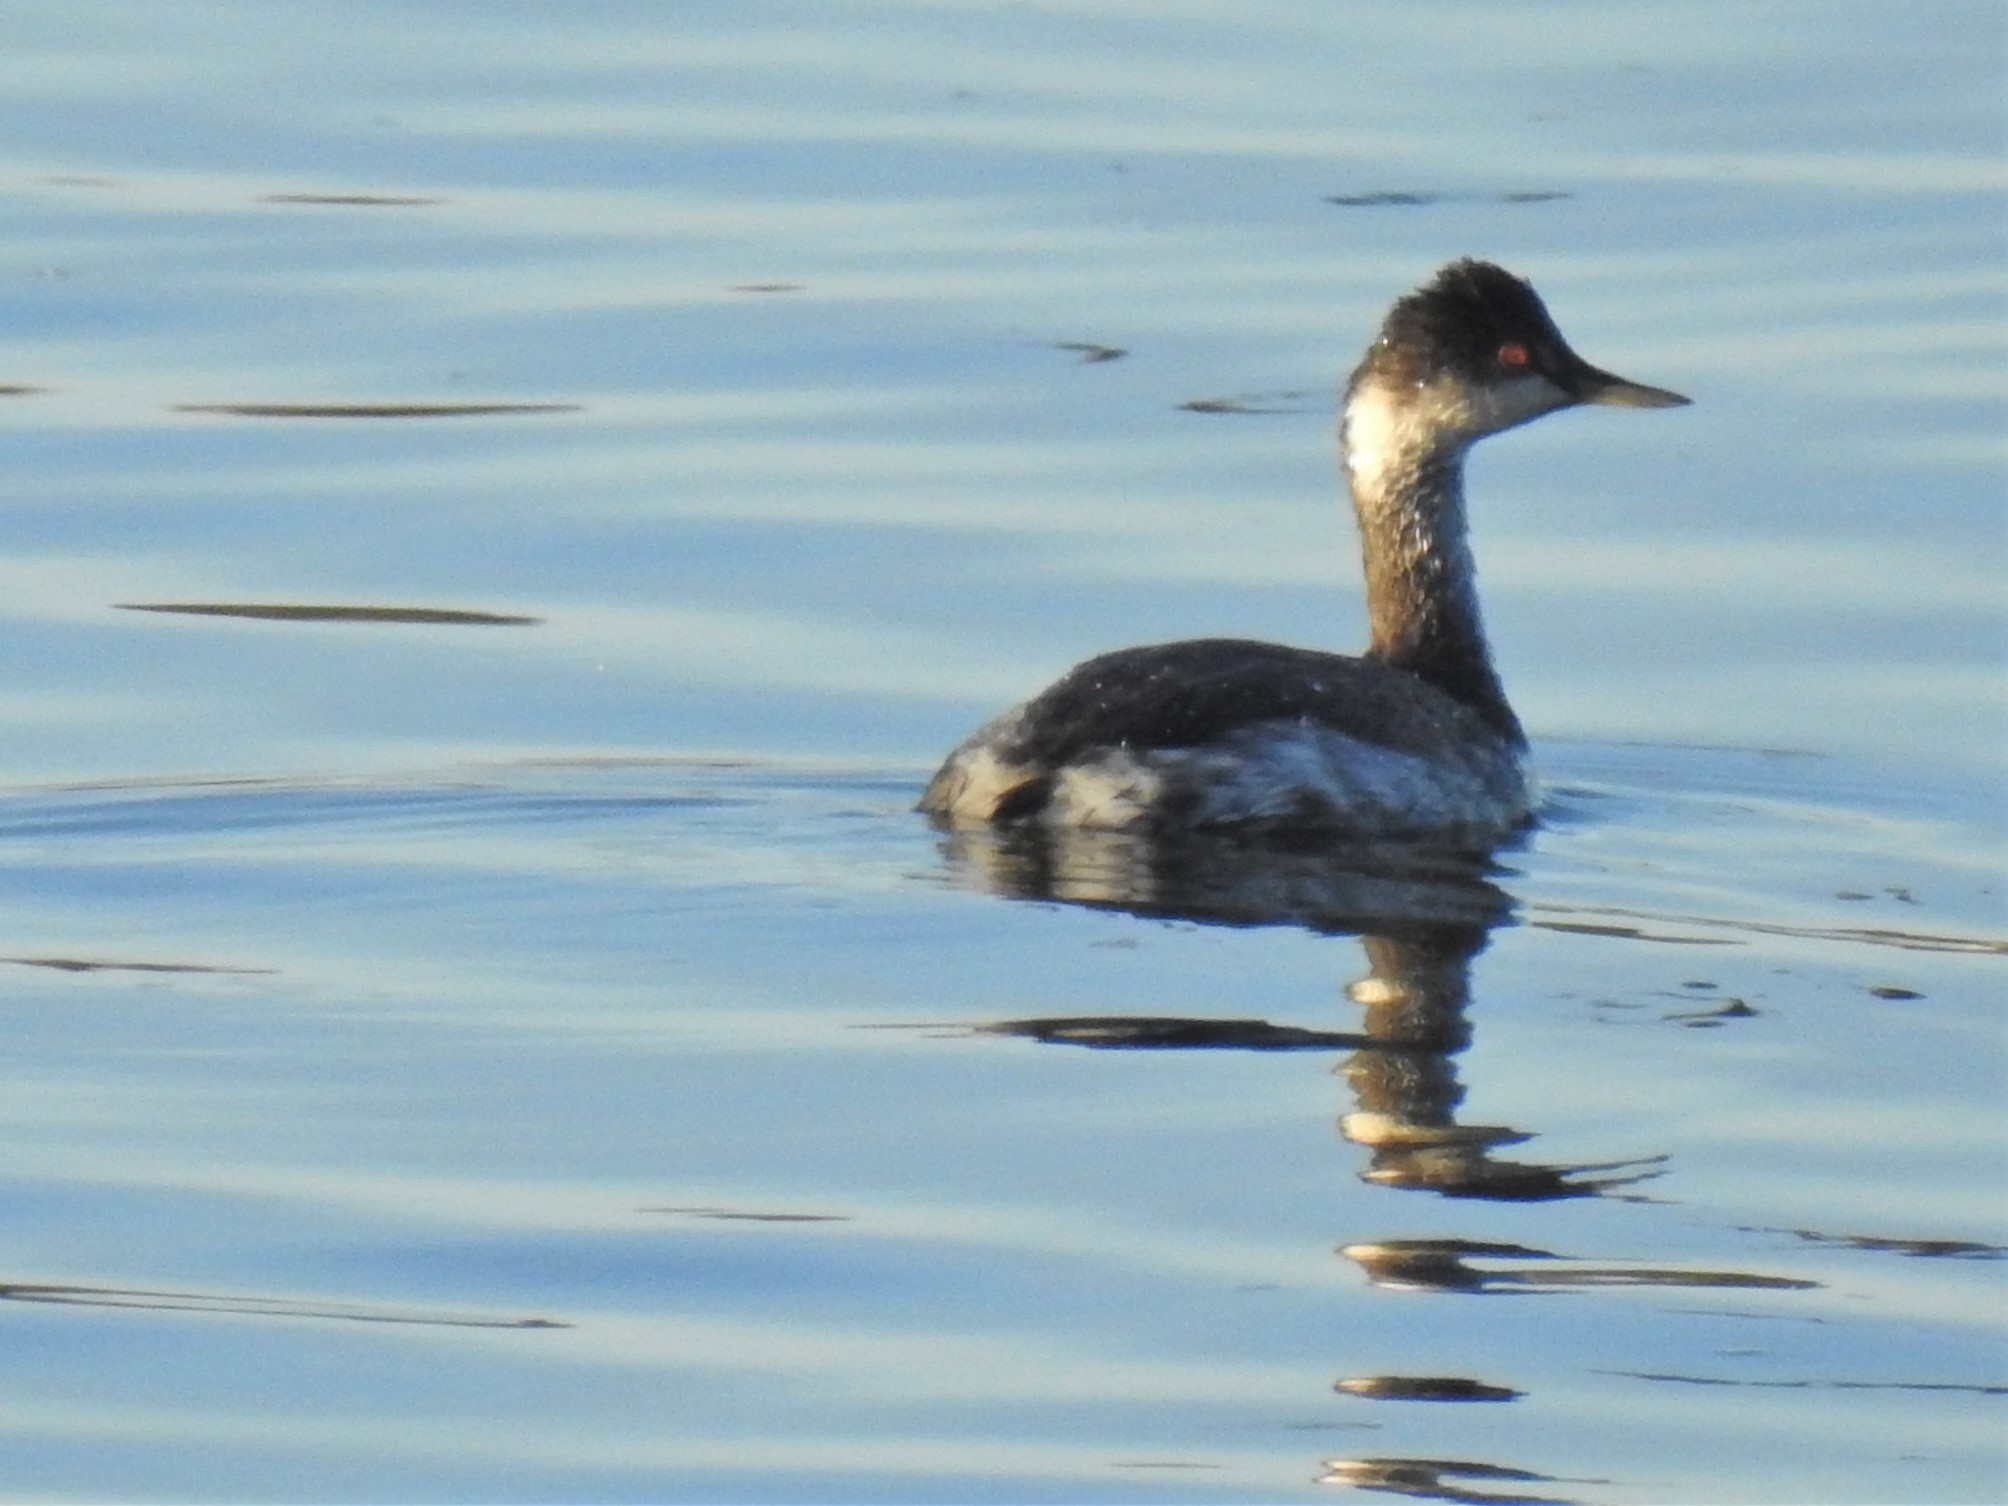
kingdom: Animalia
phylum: Chordata
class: Aves
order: Podicipediformes
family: Podicipedidae
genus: Podiceps
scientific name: Podiceps nigricollis
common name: Black-necked grebe
